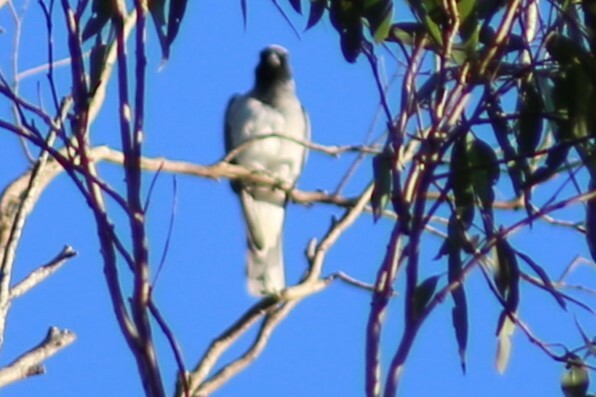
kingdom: Animalia
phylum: Chordata
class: Aves
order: Passeriformes
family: Campephagidae
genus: Coracina
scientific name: Coracina novaehollandiae
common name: Black-faced cuckooshrike
